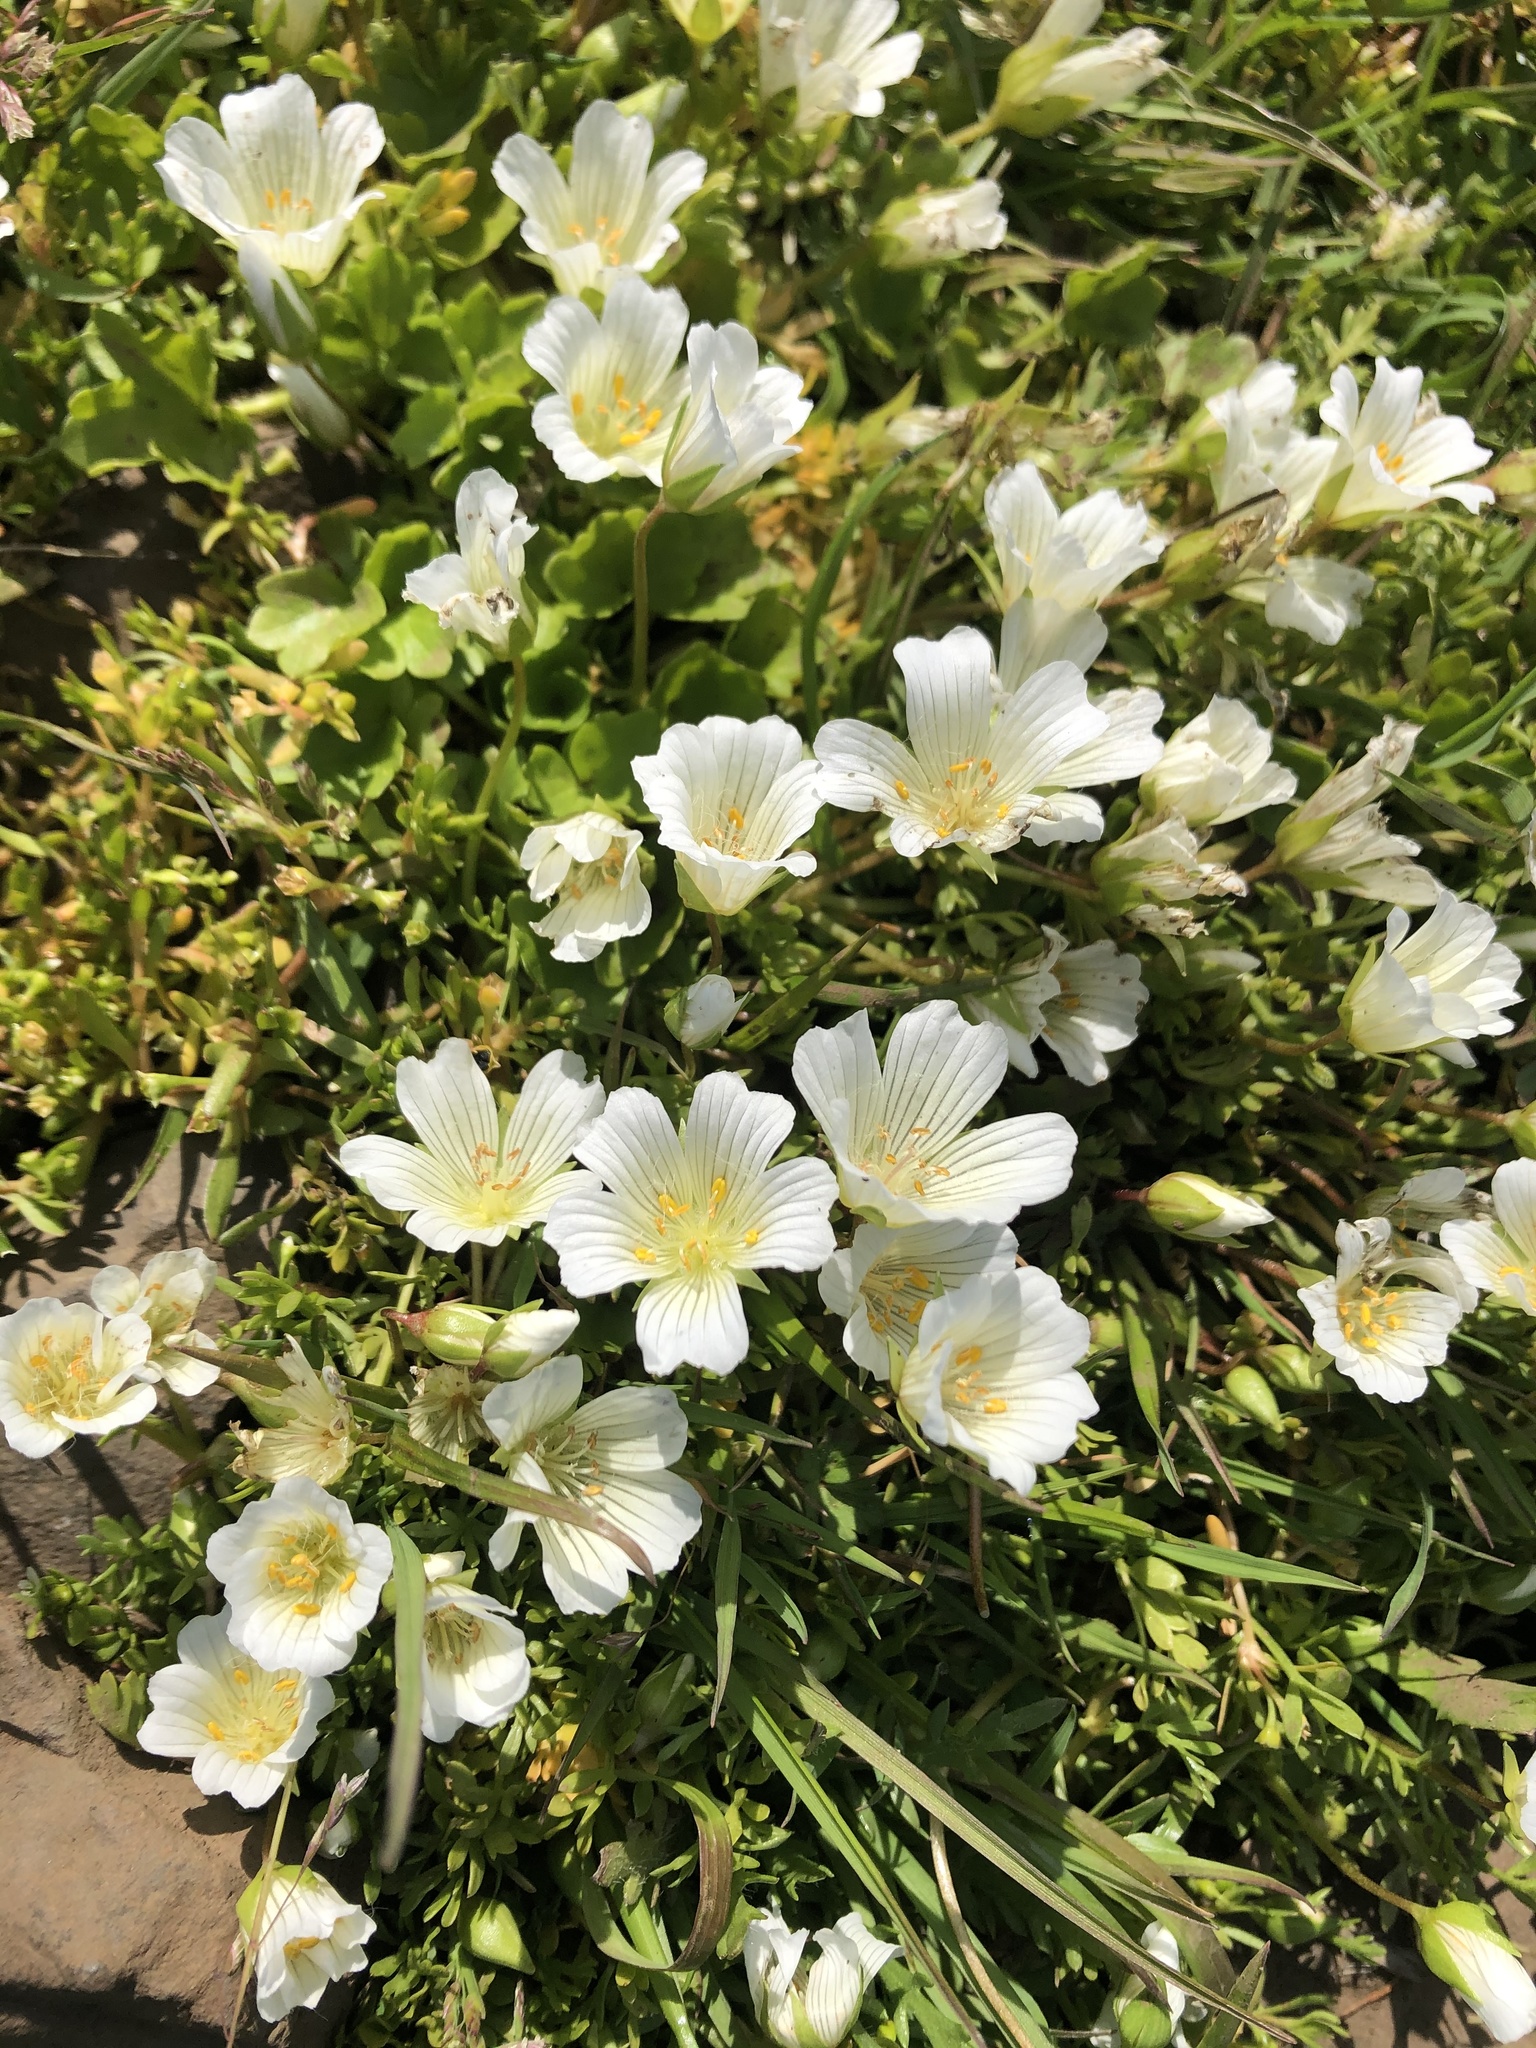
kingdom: Plantae
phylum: Tracheophyta
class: Magnoliopsida
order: Brassicales
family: Limnanthaceae
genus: Limnanthes
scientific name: Limnanthes douglasii
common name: Meadow-foam
